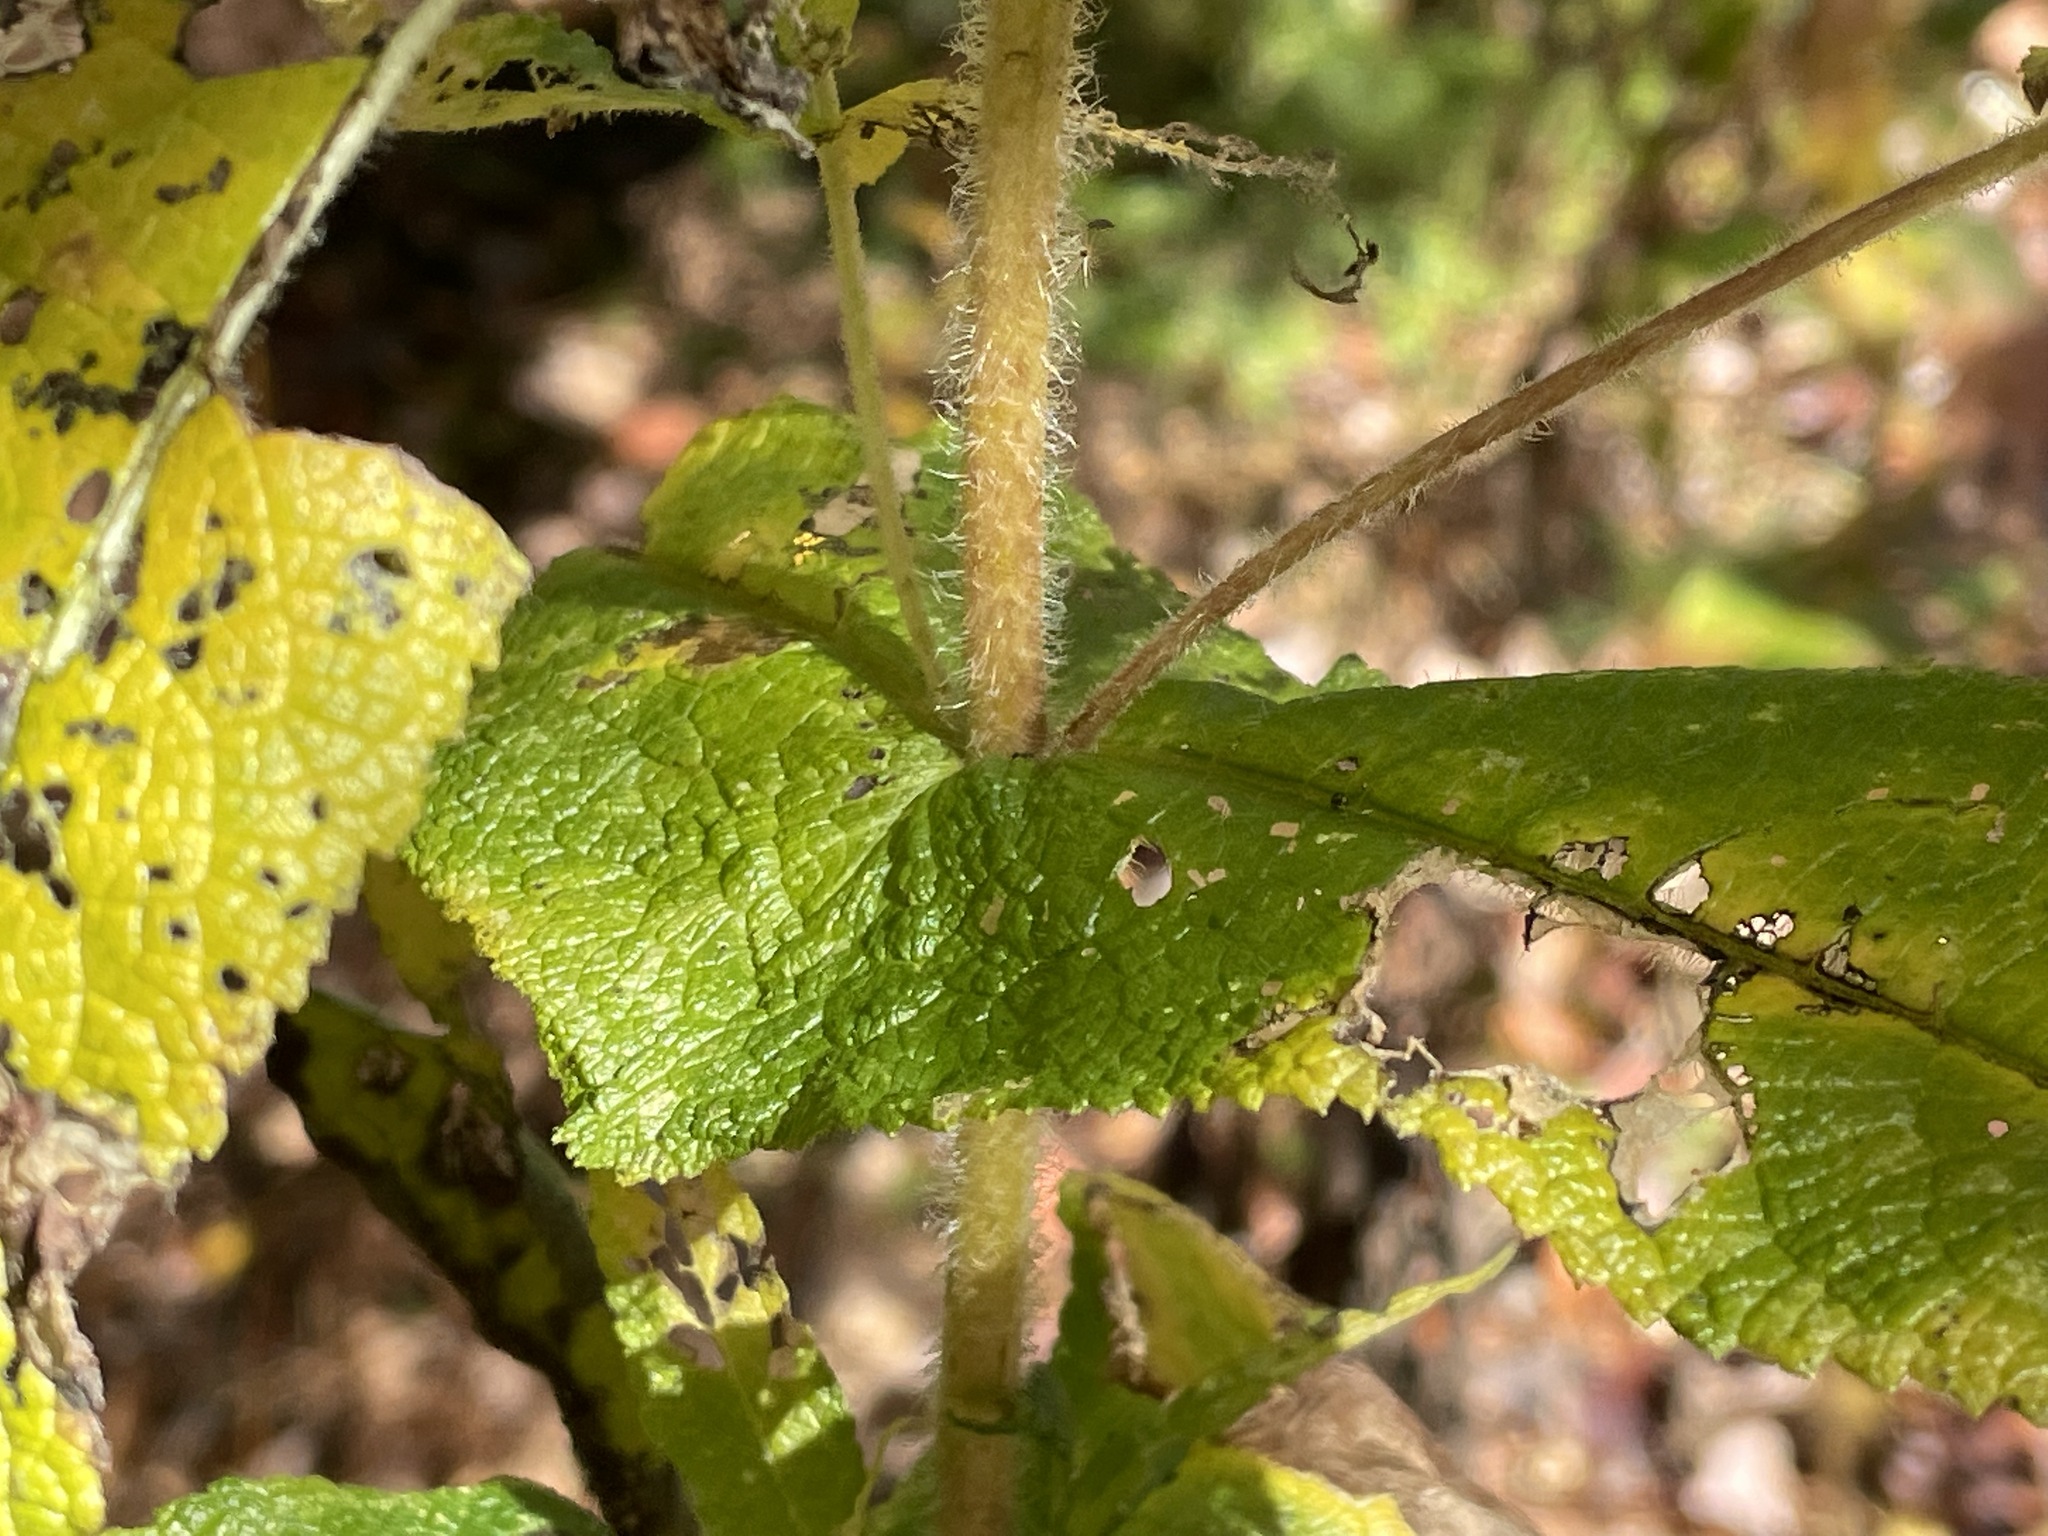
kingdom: Plantae
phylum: Tracheophyta
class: Magnoliopsida
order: Asterales
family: Asteraceae
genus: Eupatorium
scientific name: Eupatorium perfoliatum
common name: Boneset
